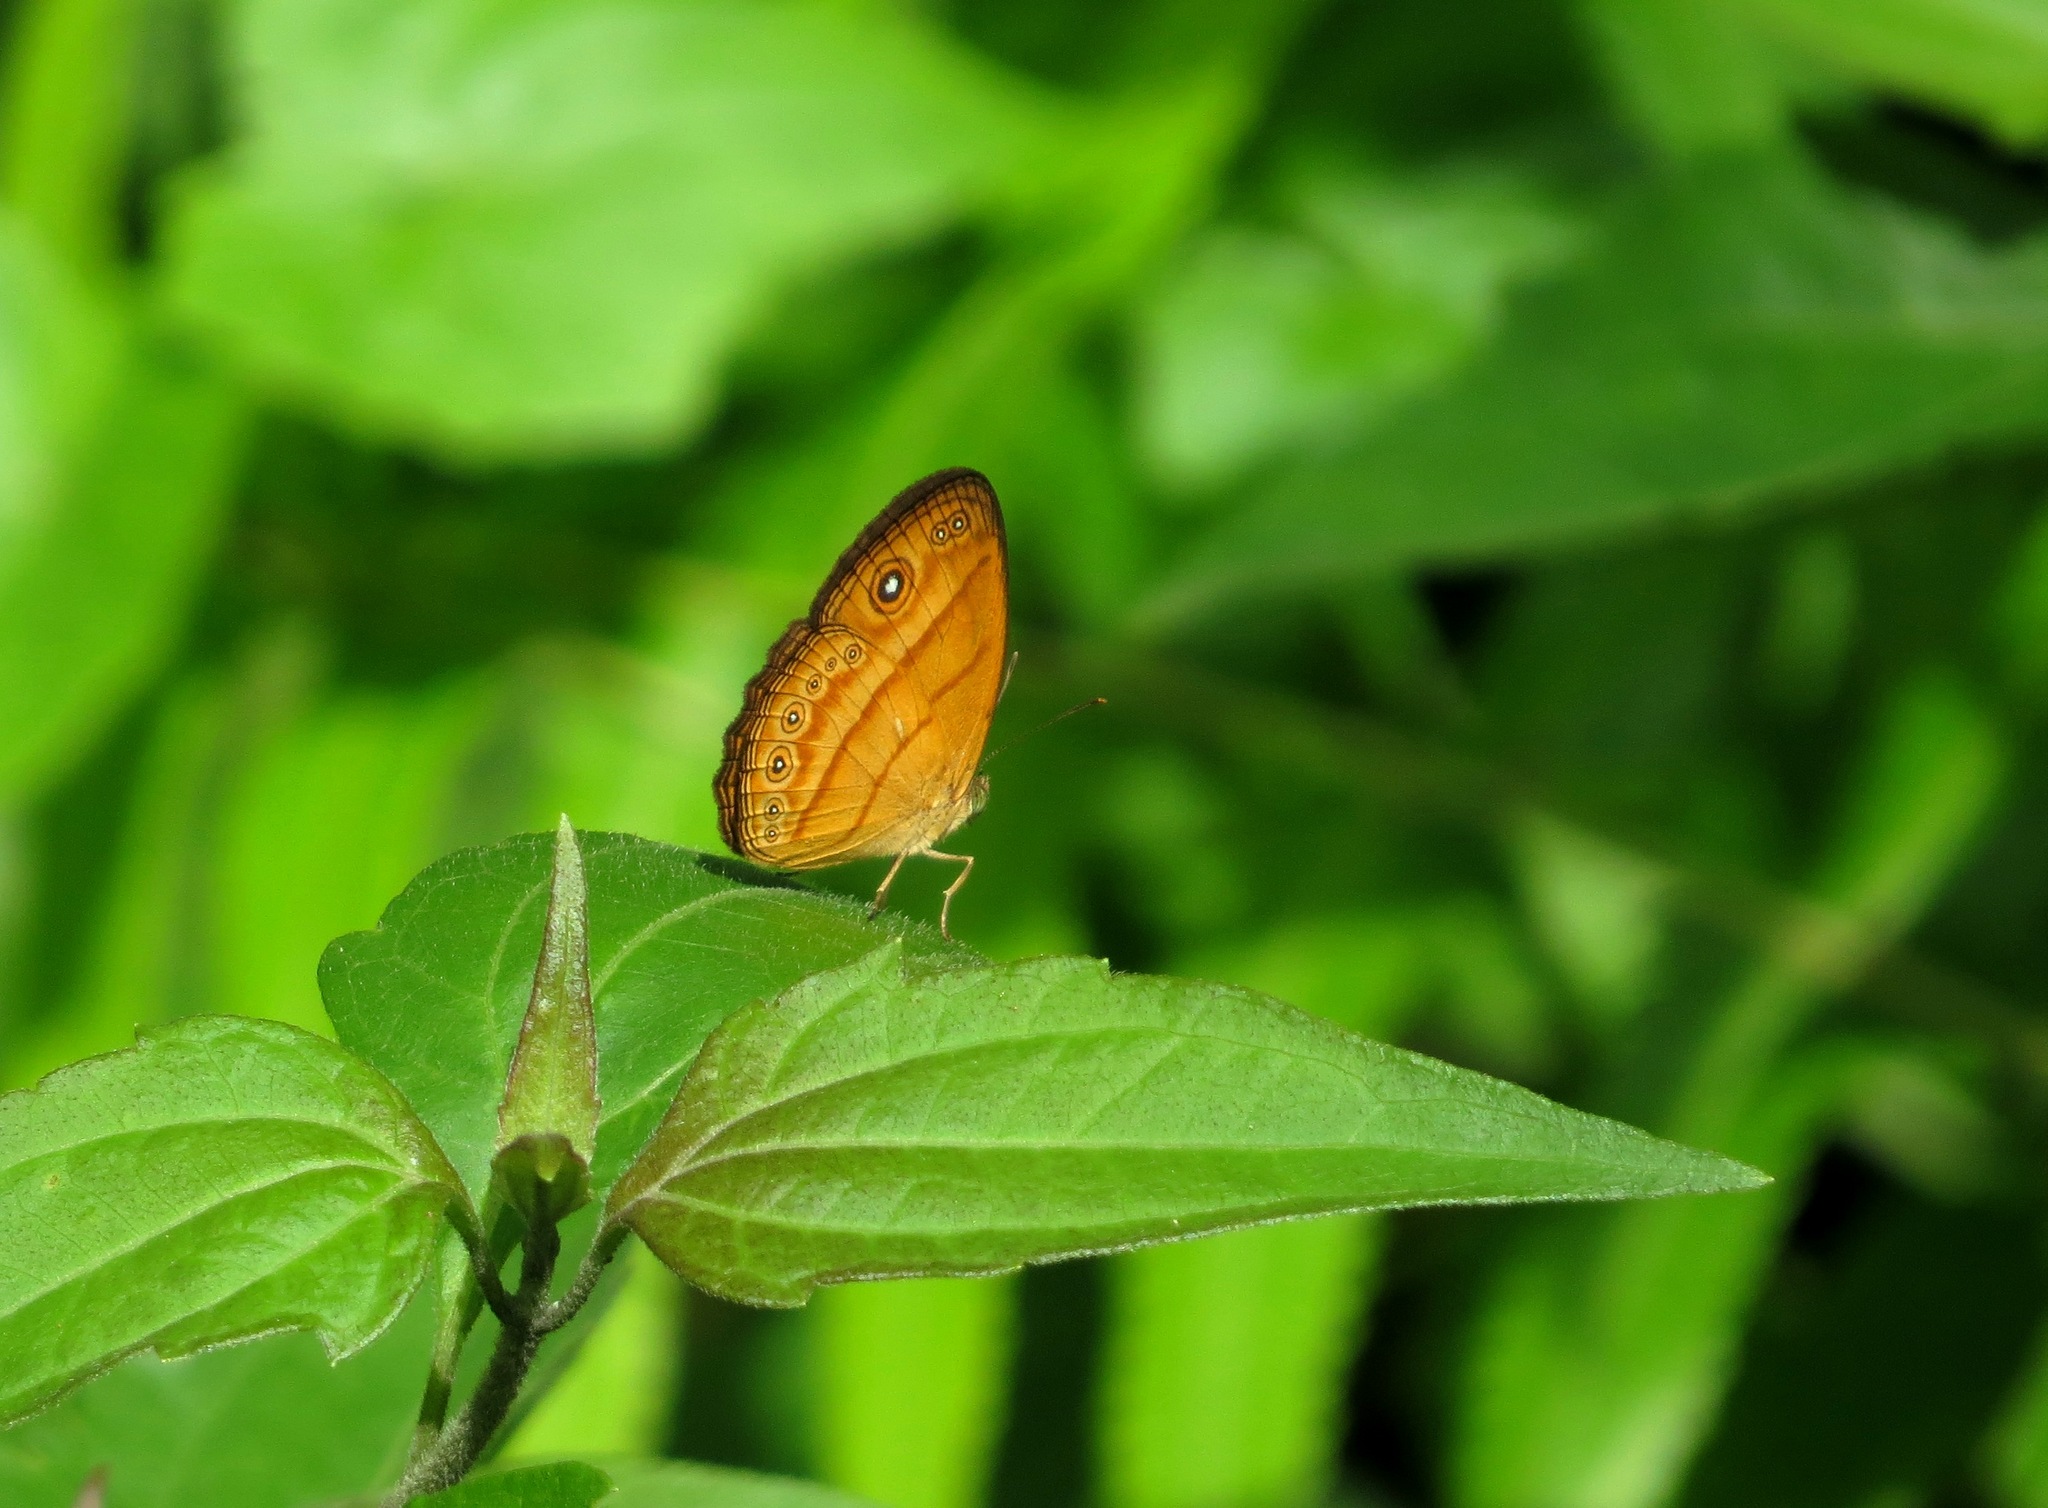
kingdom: Animalia
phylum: Arthropoda
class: Insecta
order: Lepidoptera
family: Nymphalidae
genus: Mycalesis
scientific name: Mycalesis anapita
